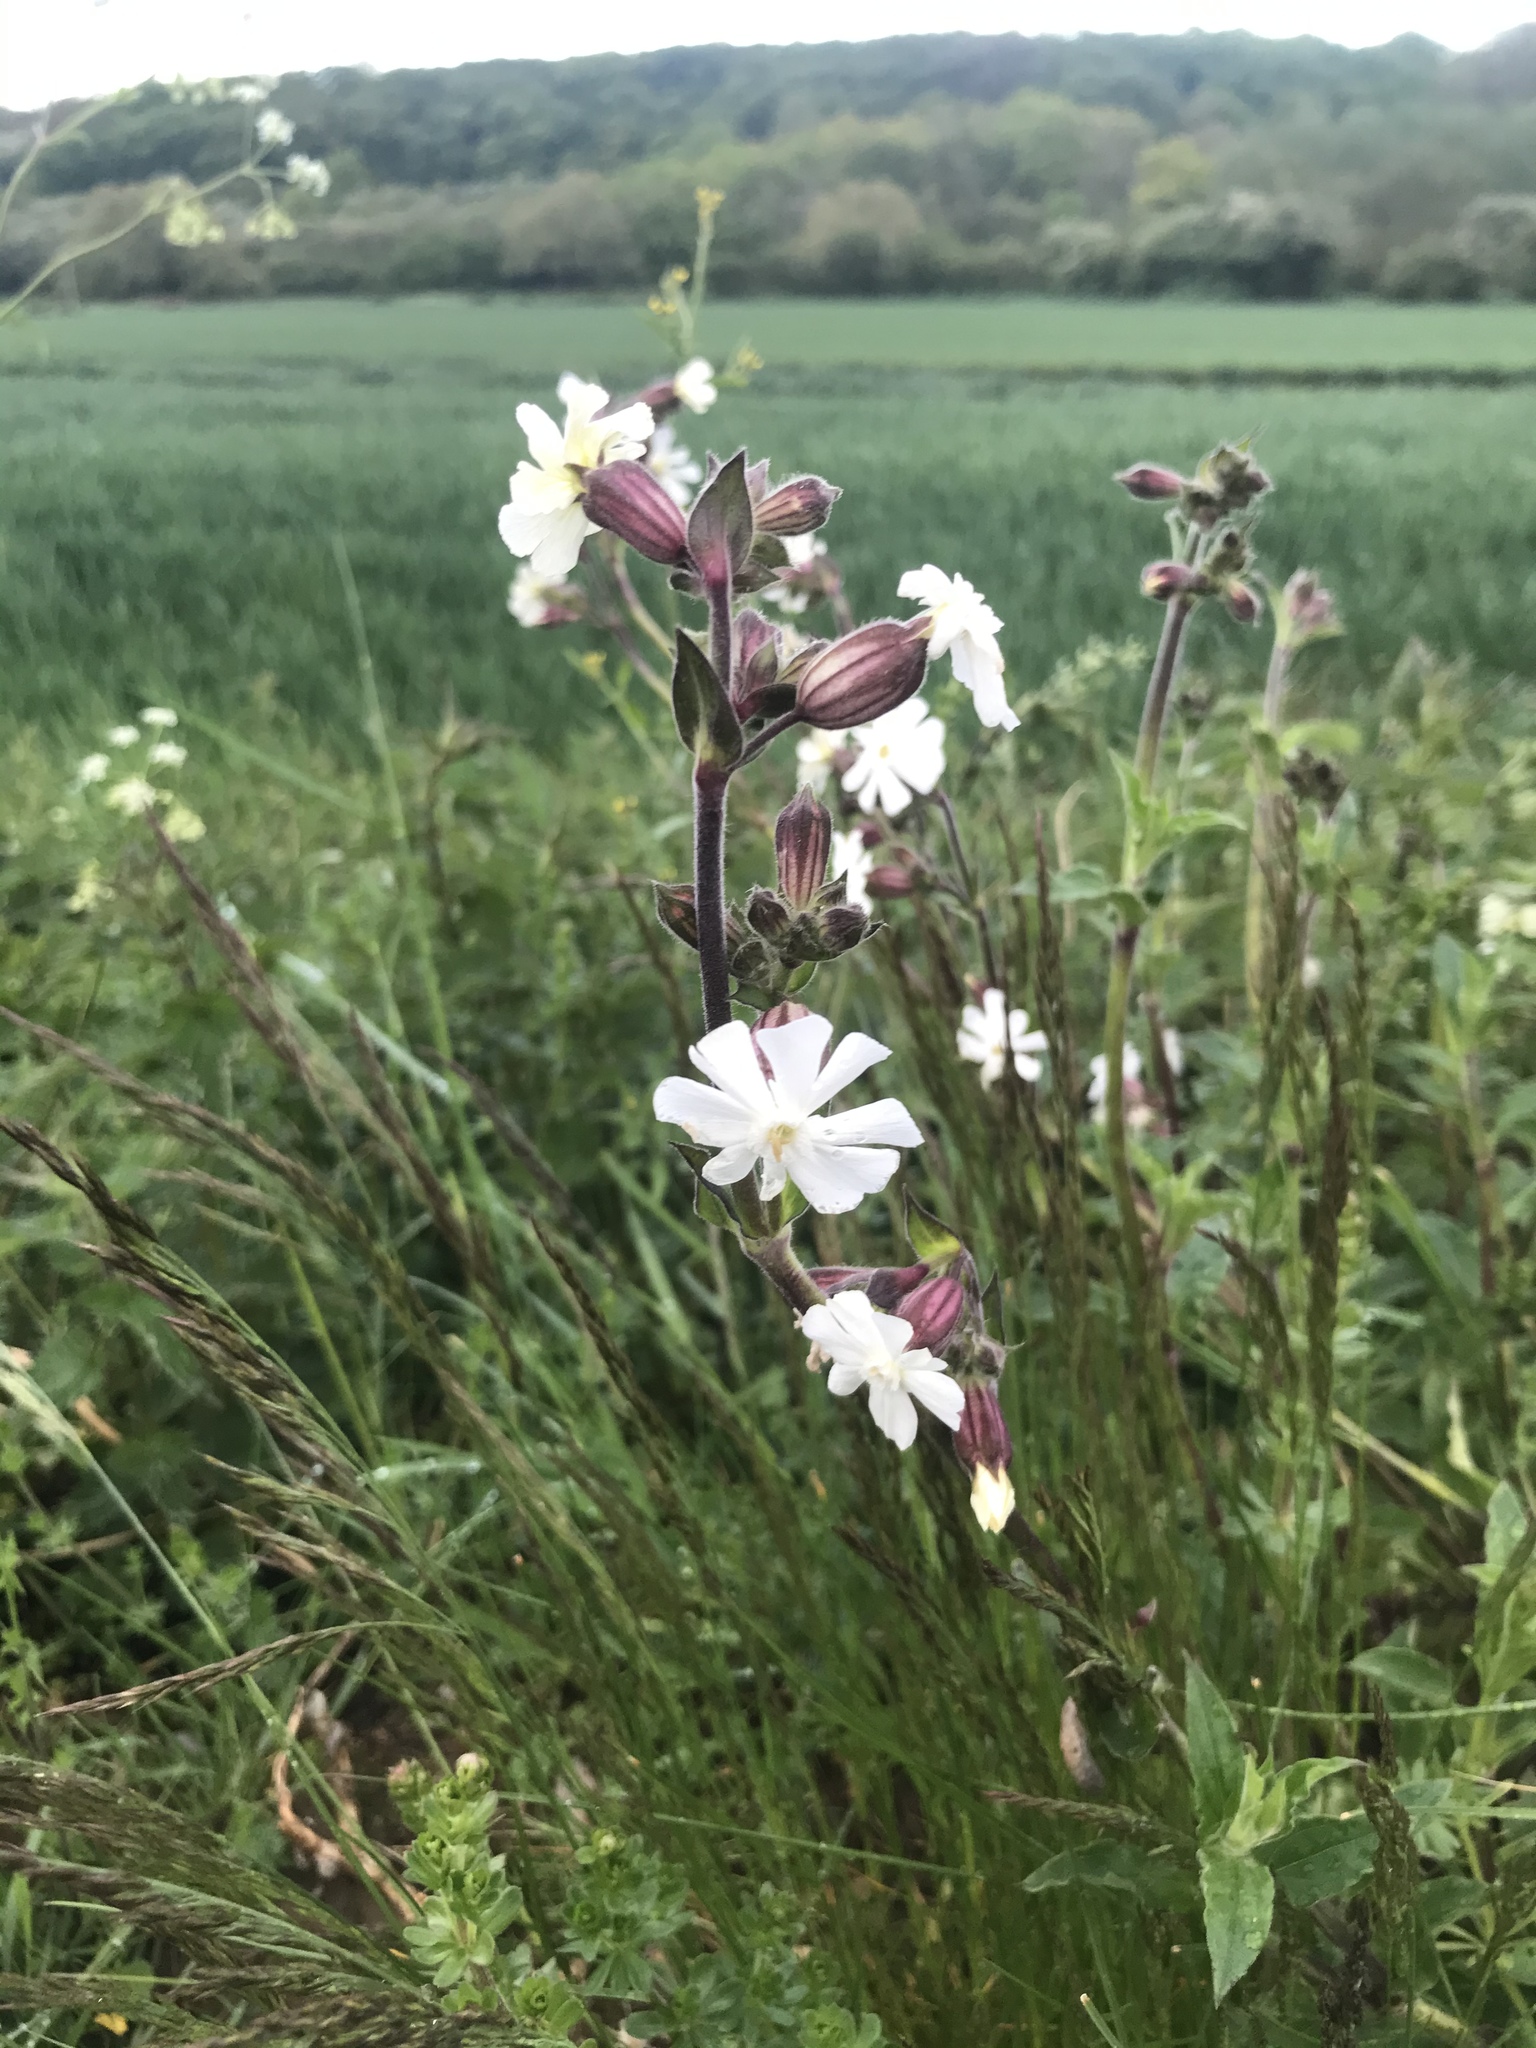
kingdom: Plantae
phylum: Tracheophyta
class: Magnoliopsida
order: Caryophyllales
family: Caryophyllaceae
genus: Silene
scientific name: Silene latifolia
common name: White campion
